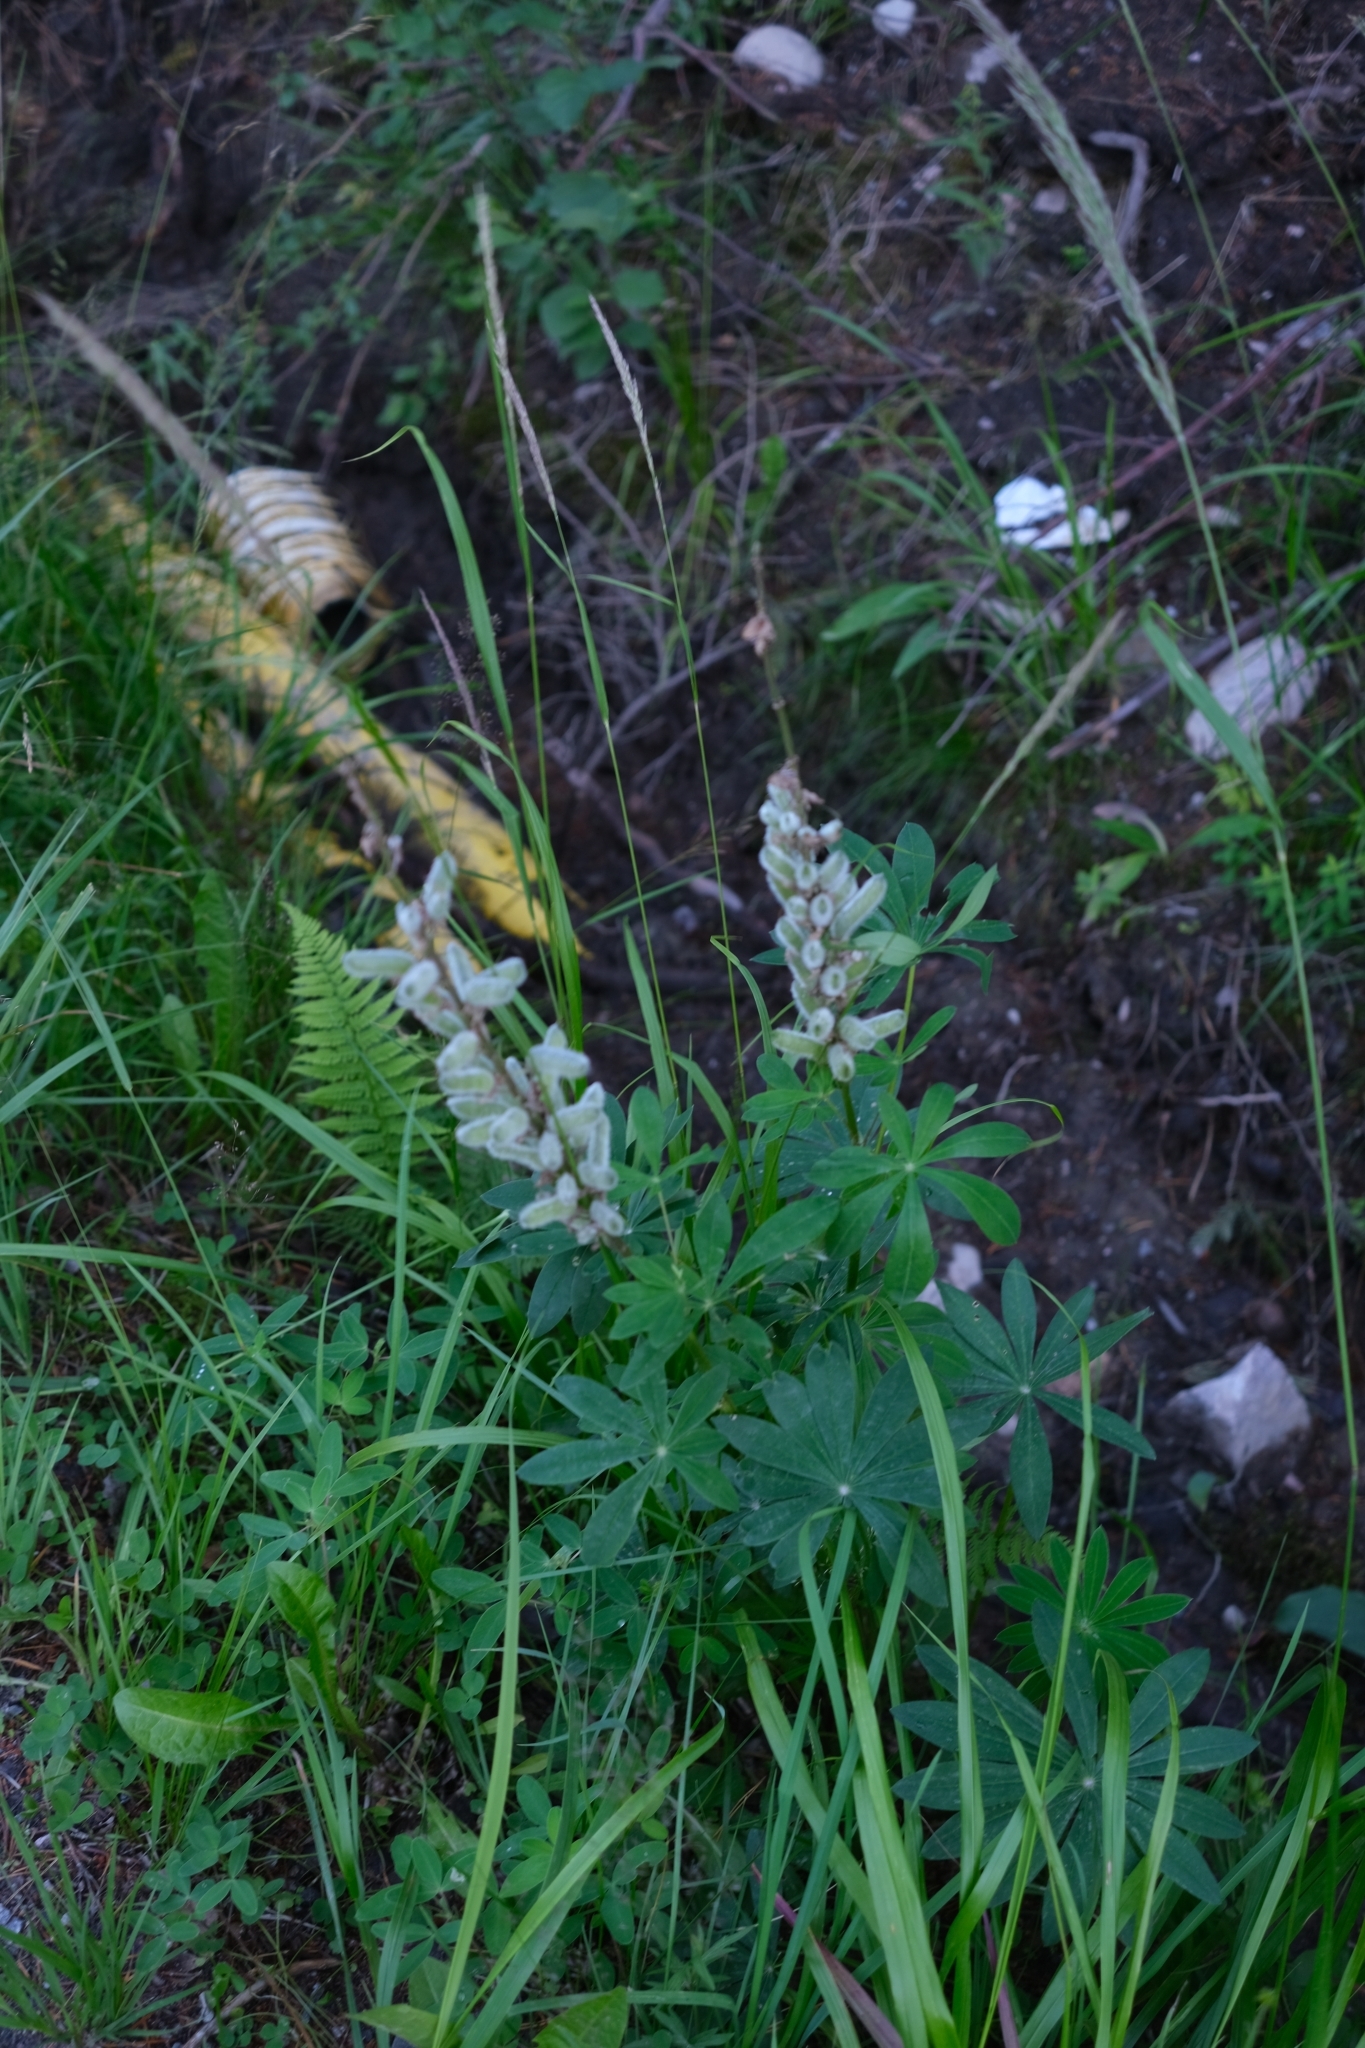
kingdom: Plantae
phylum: Tracheophyta
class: Magnoliopsida
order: Fabales
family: Fabaceae
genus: Lupinus
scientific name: Lupinus polyphyllus
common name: Garden lupin
